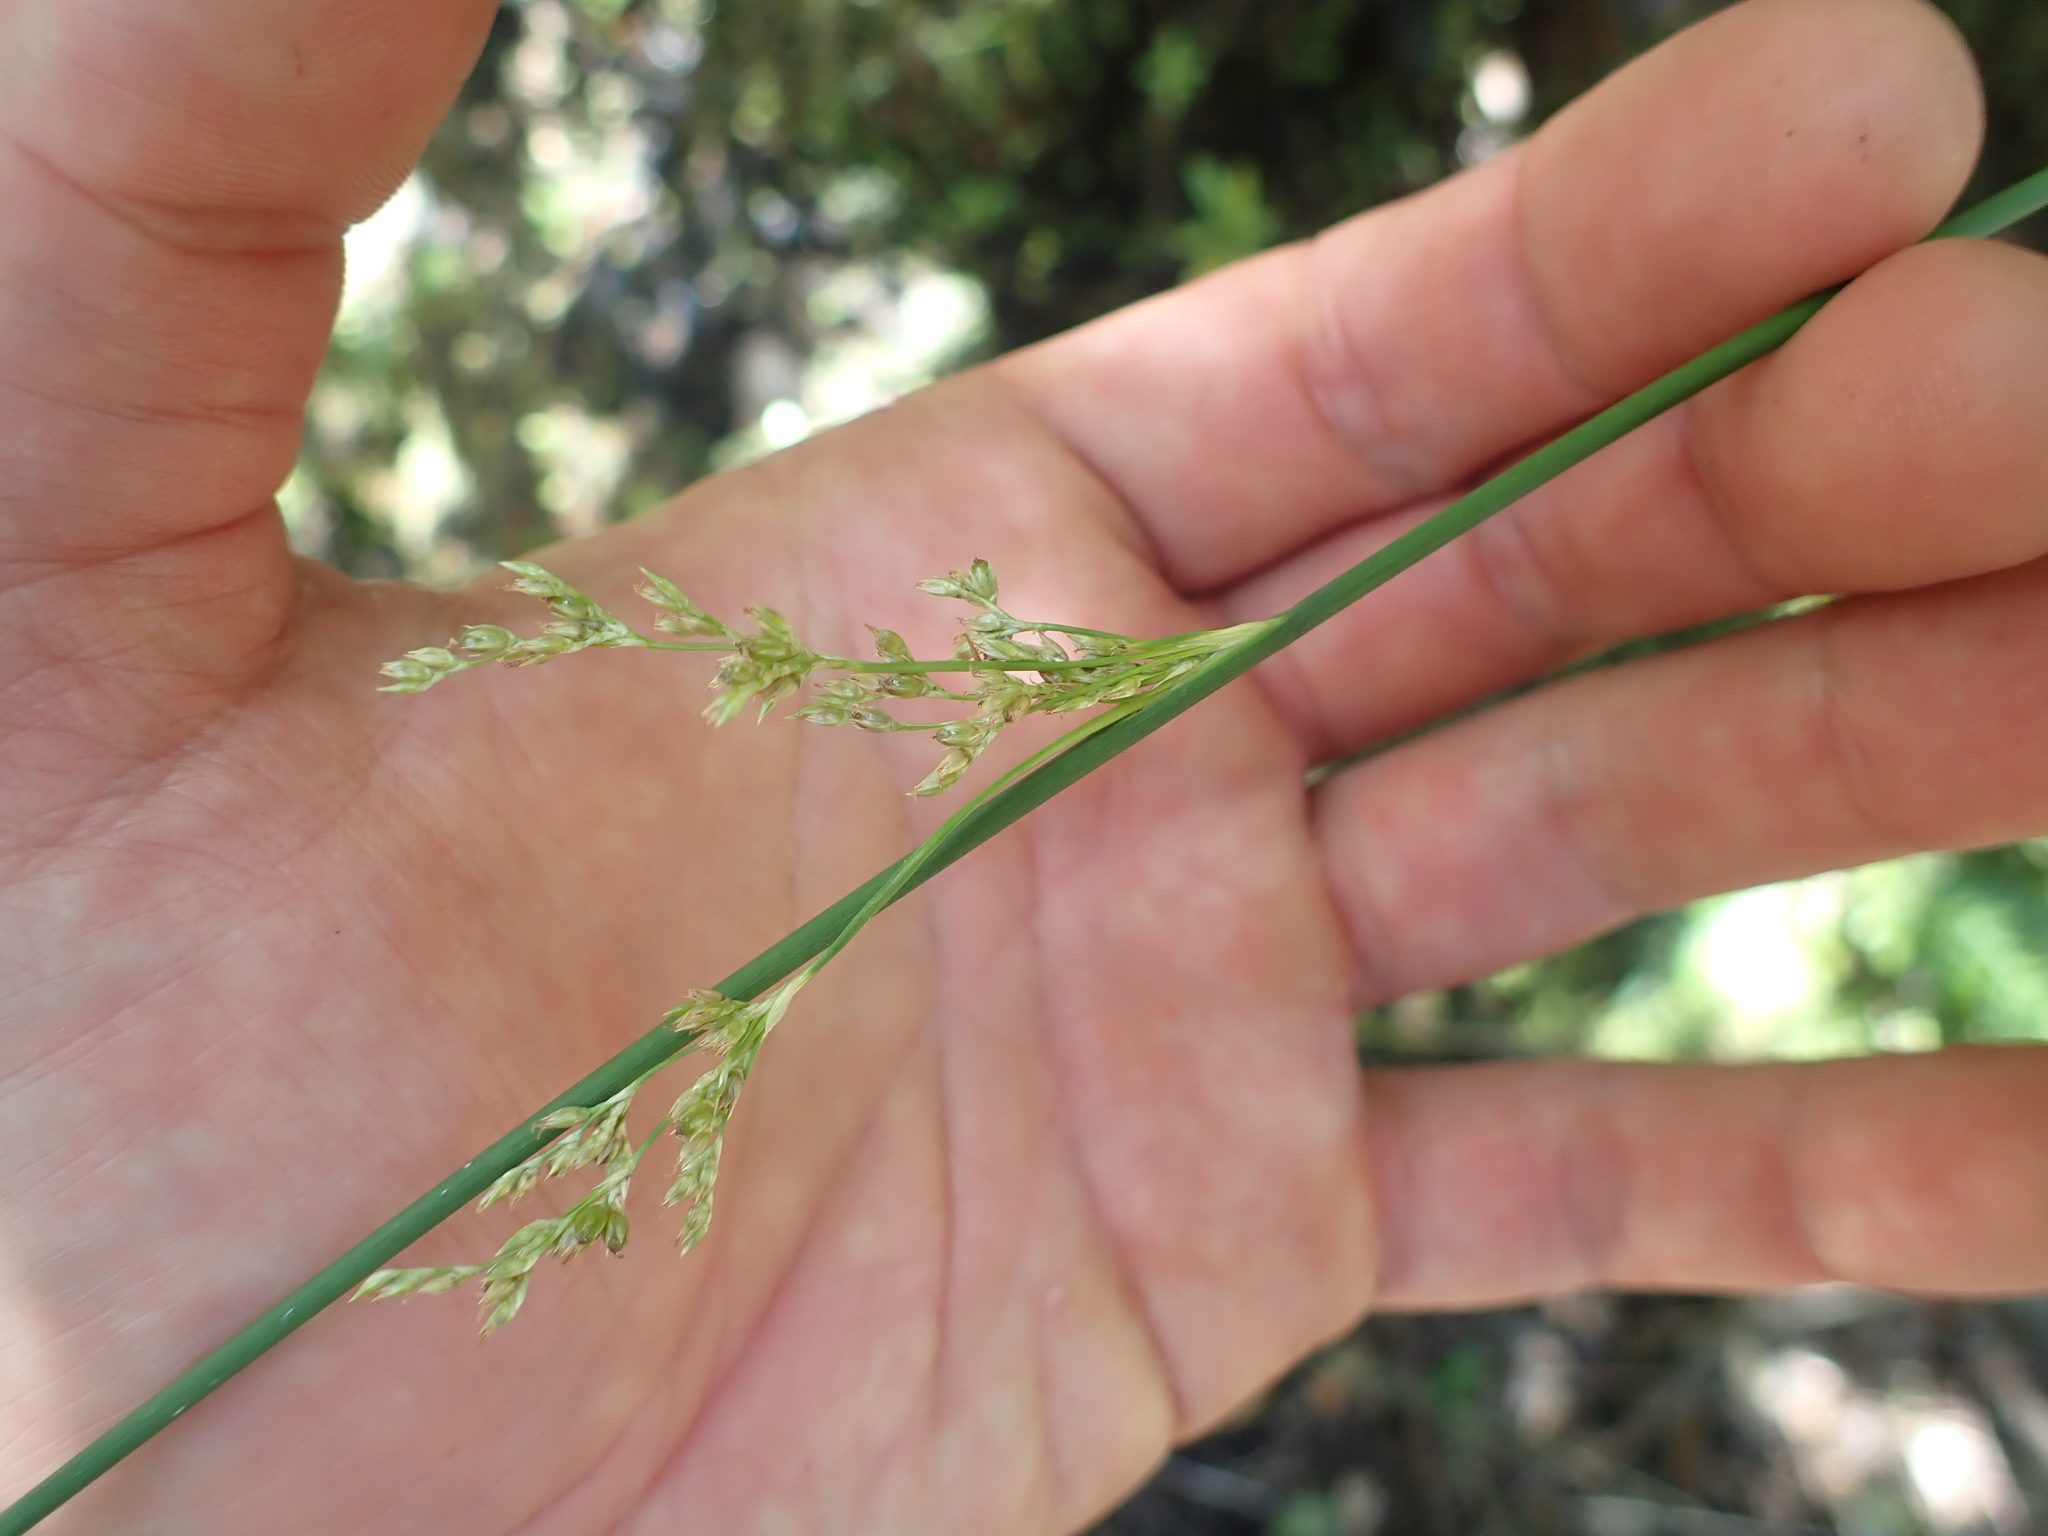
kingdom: Plantae
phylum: Tracheophyta
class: Liliopsida
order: Poales
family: Juncaceae
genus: Juncus
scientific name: Juncus australis
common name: Austral rush
